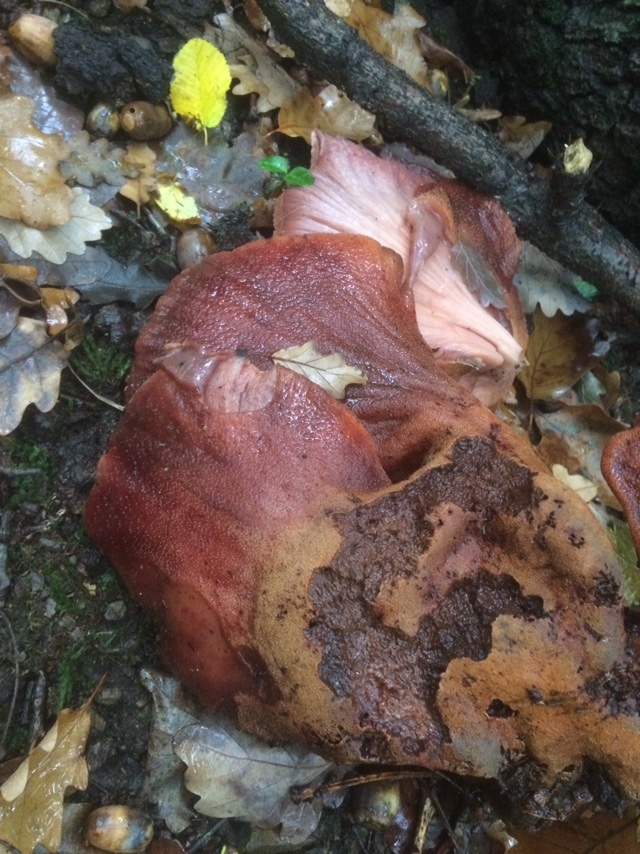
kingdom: Fungi
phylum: Basidiomycota
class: Agaricomycetes
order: Agaricales
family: Fistulinaceae
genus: Fistulina
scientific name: Fistulina hepatica
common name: Beef-steak fungus
